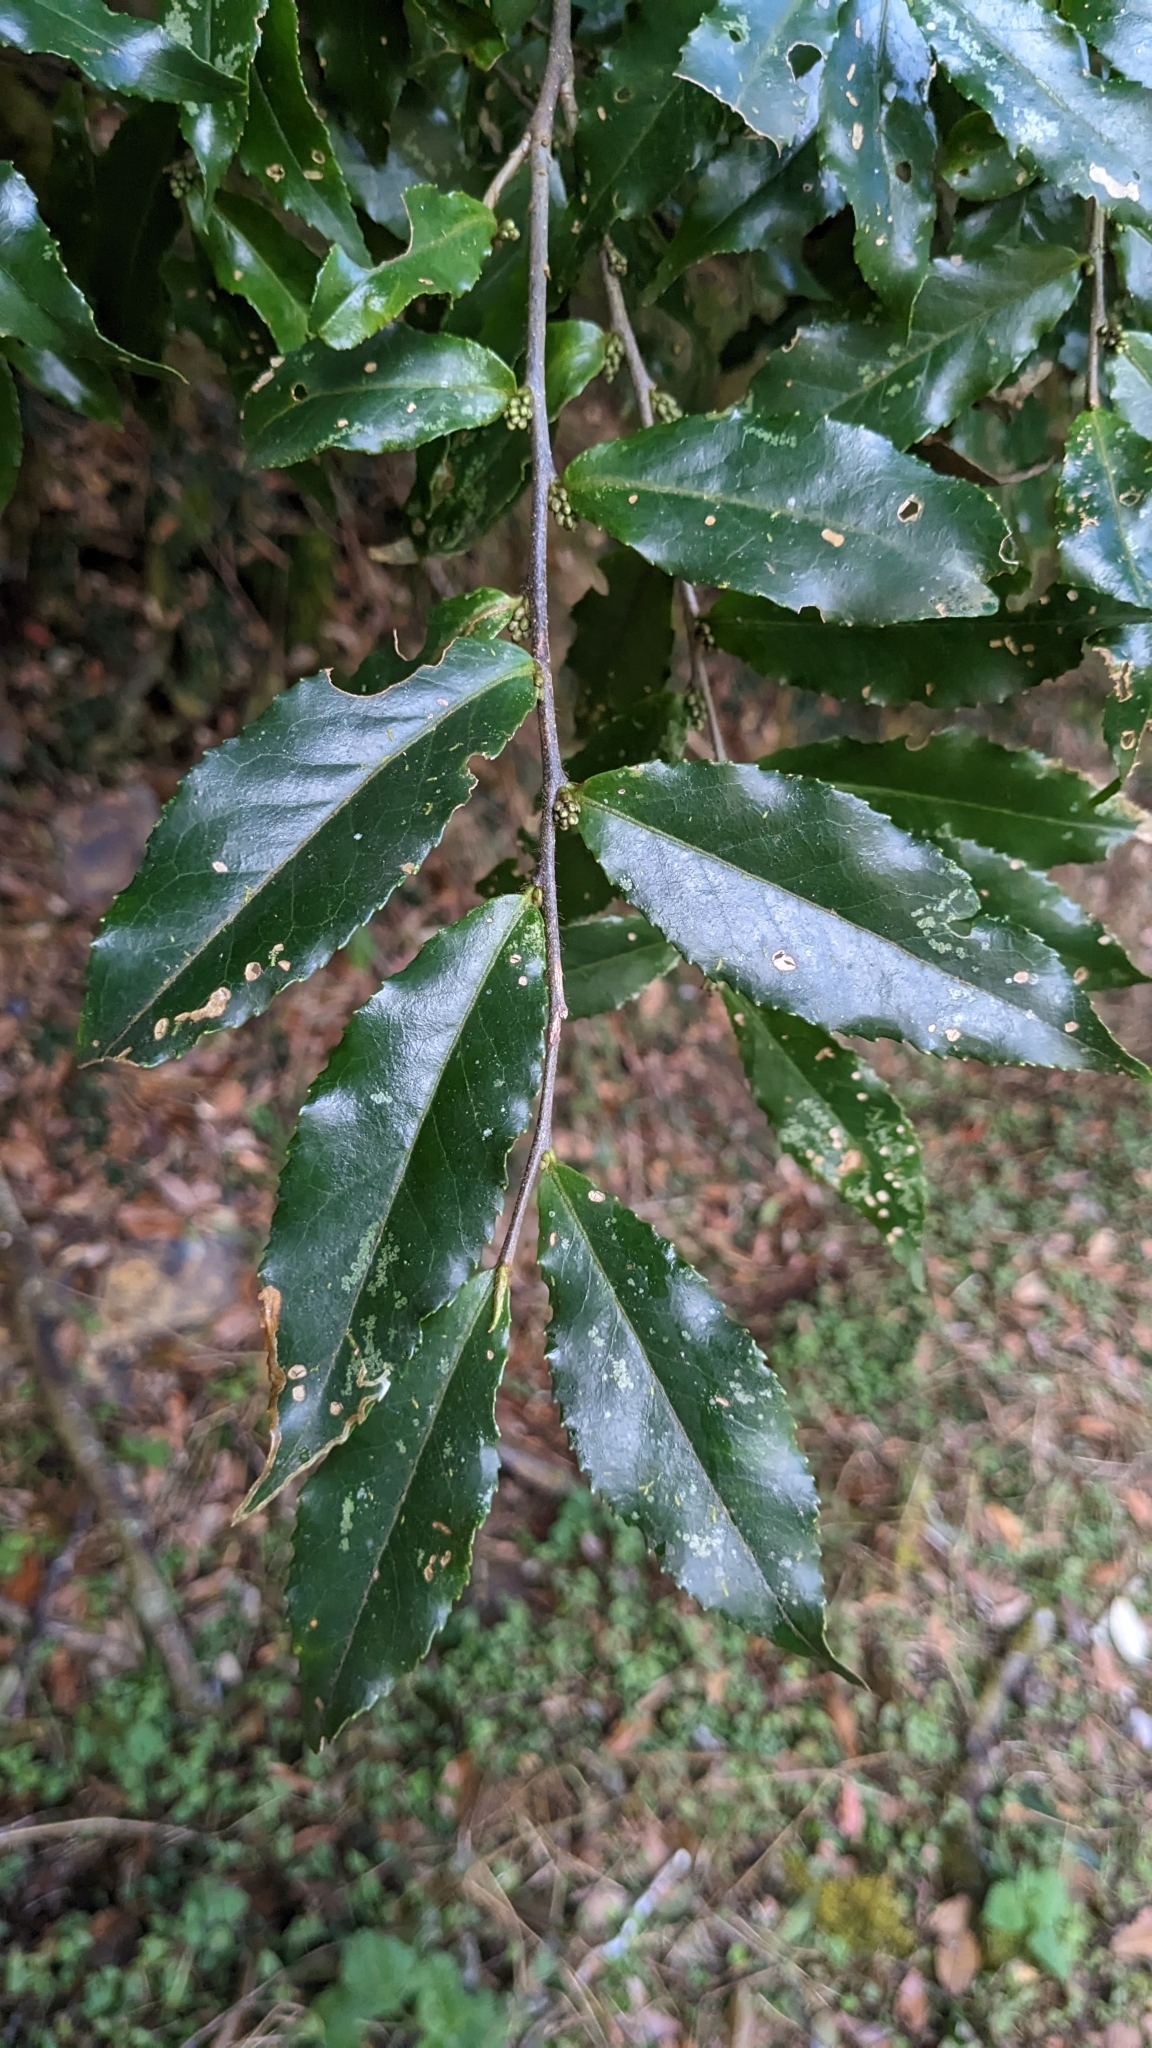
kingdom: Plantae
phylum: Tracheophyta
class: Magnoliopsida
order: Ericales
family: Symplocaceae
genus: Symplocos
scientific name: Symplocos lancifolia
